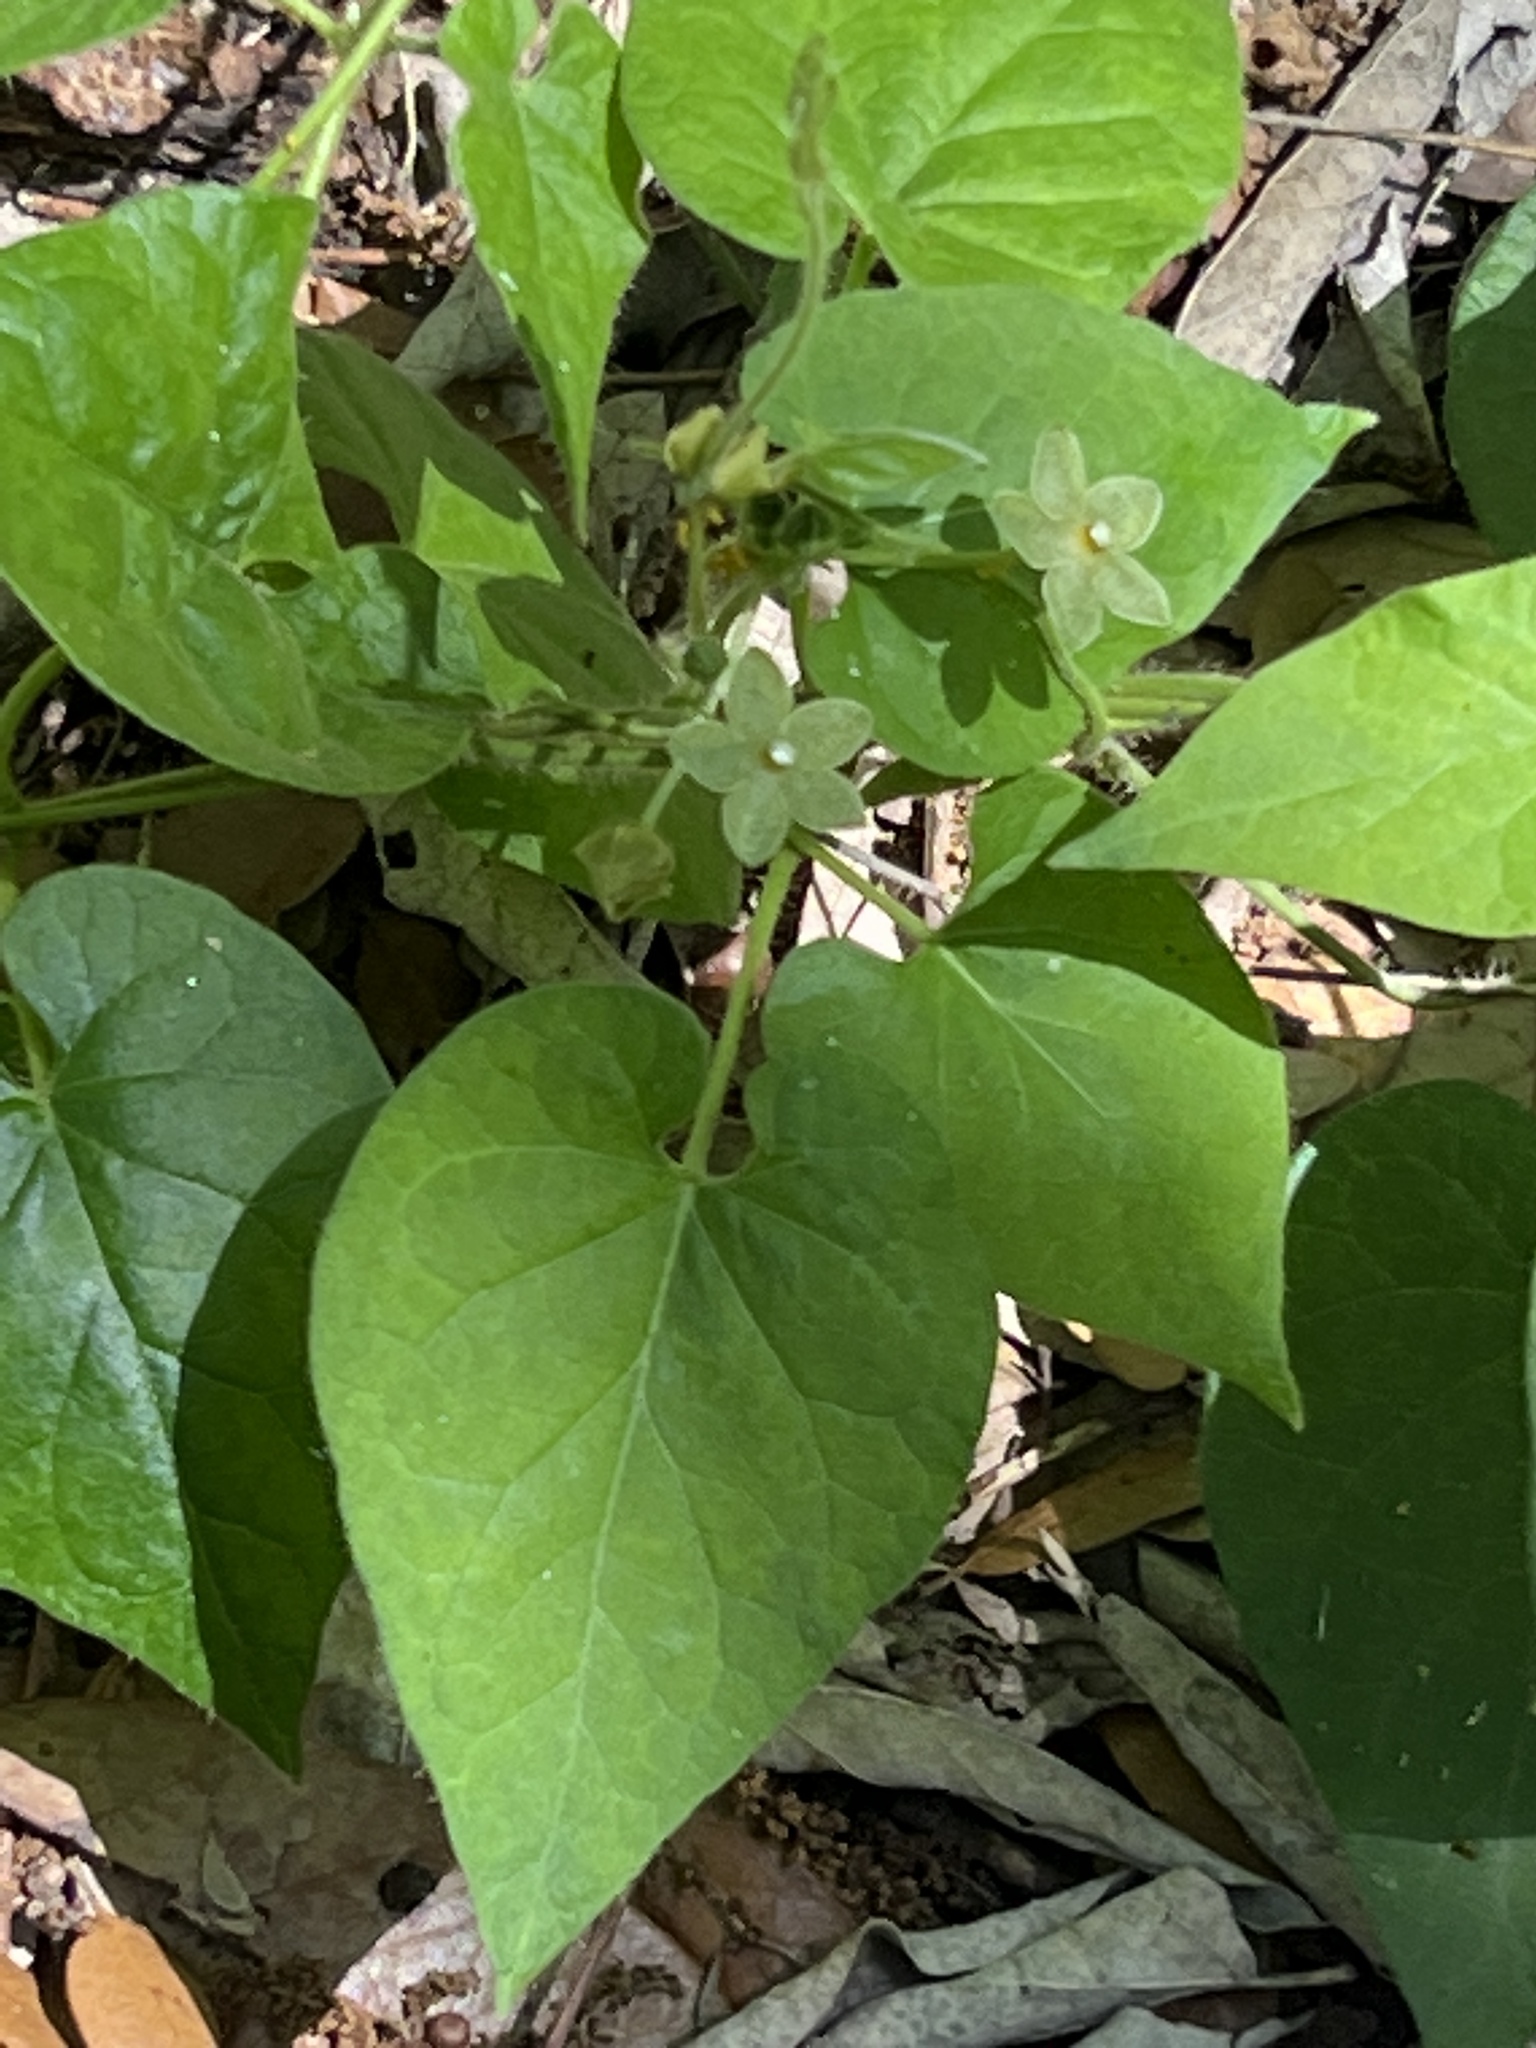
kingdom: Plantae
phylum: Tracheophyta
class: Magnoliopsida
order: Gentianales
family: Apocynaceae
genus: Dictyanthus
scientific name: Dictyanthus reticulatus
